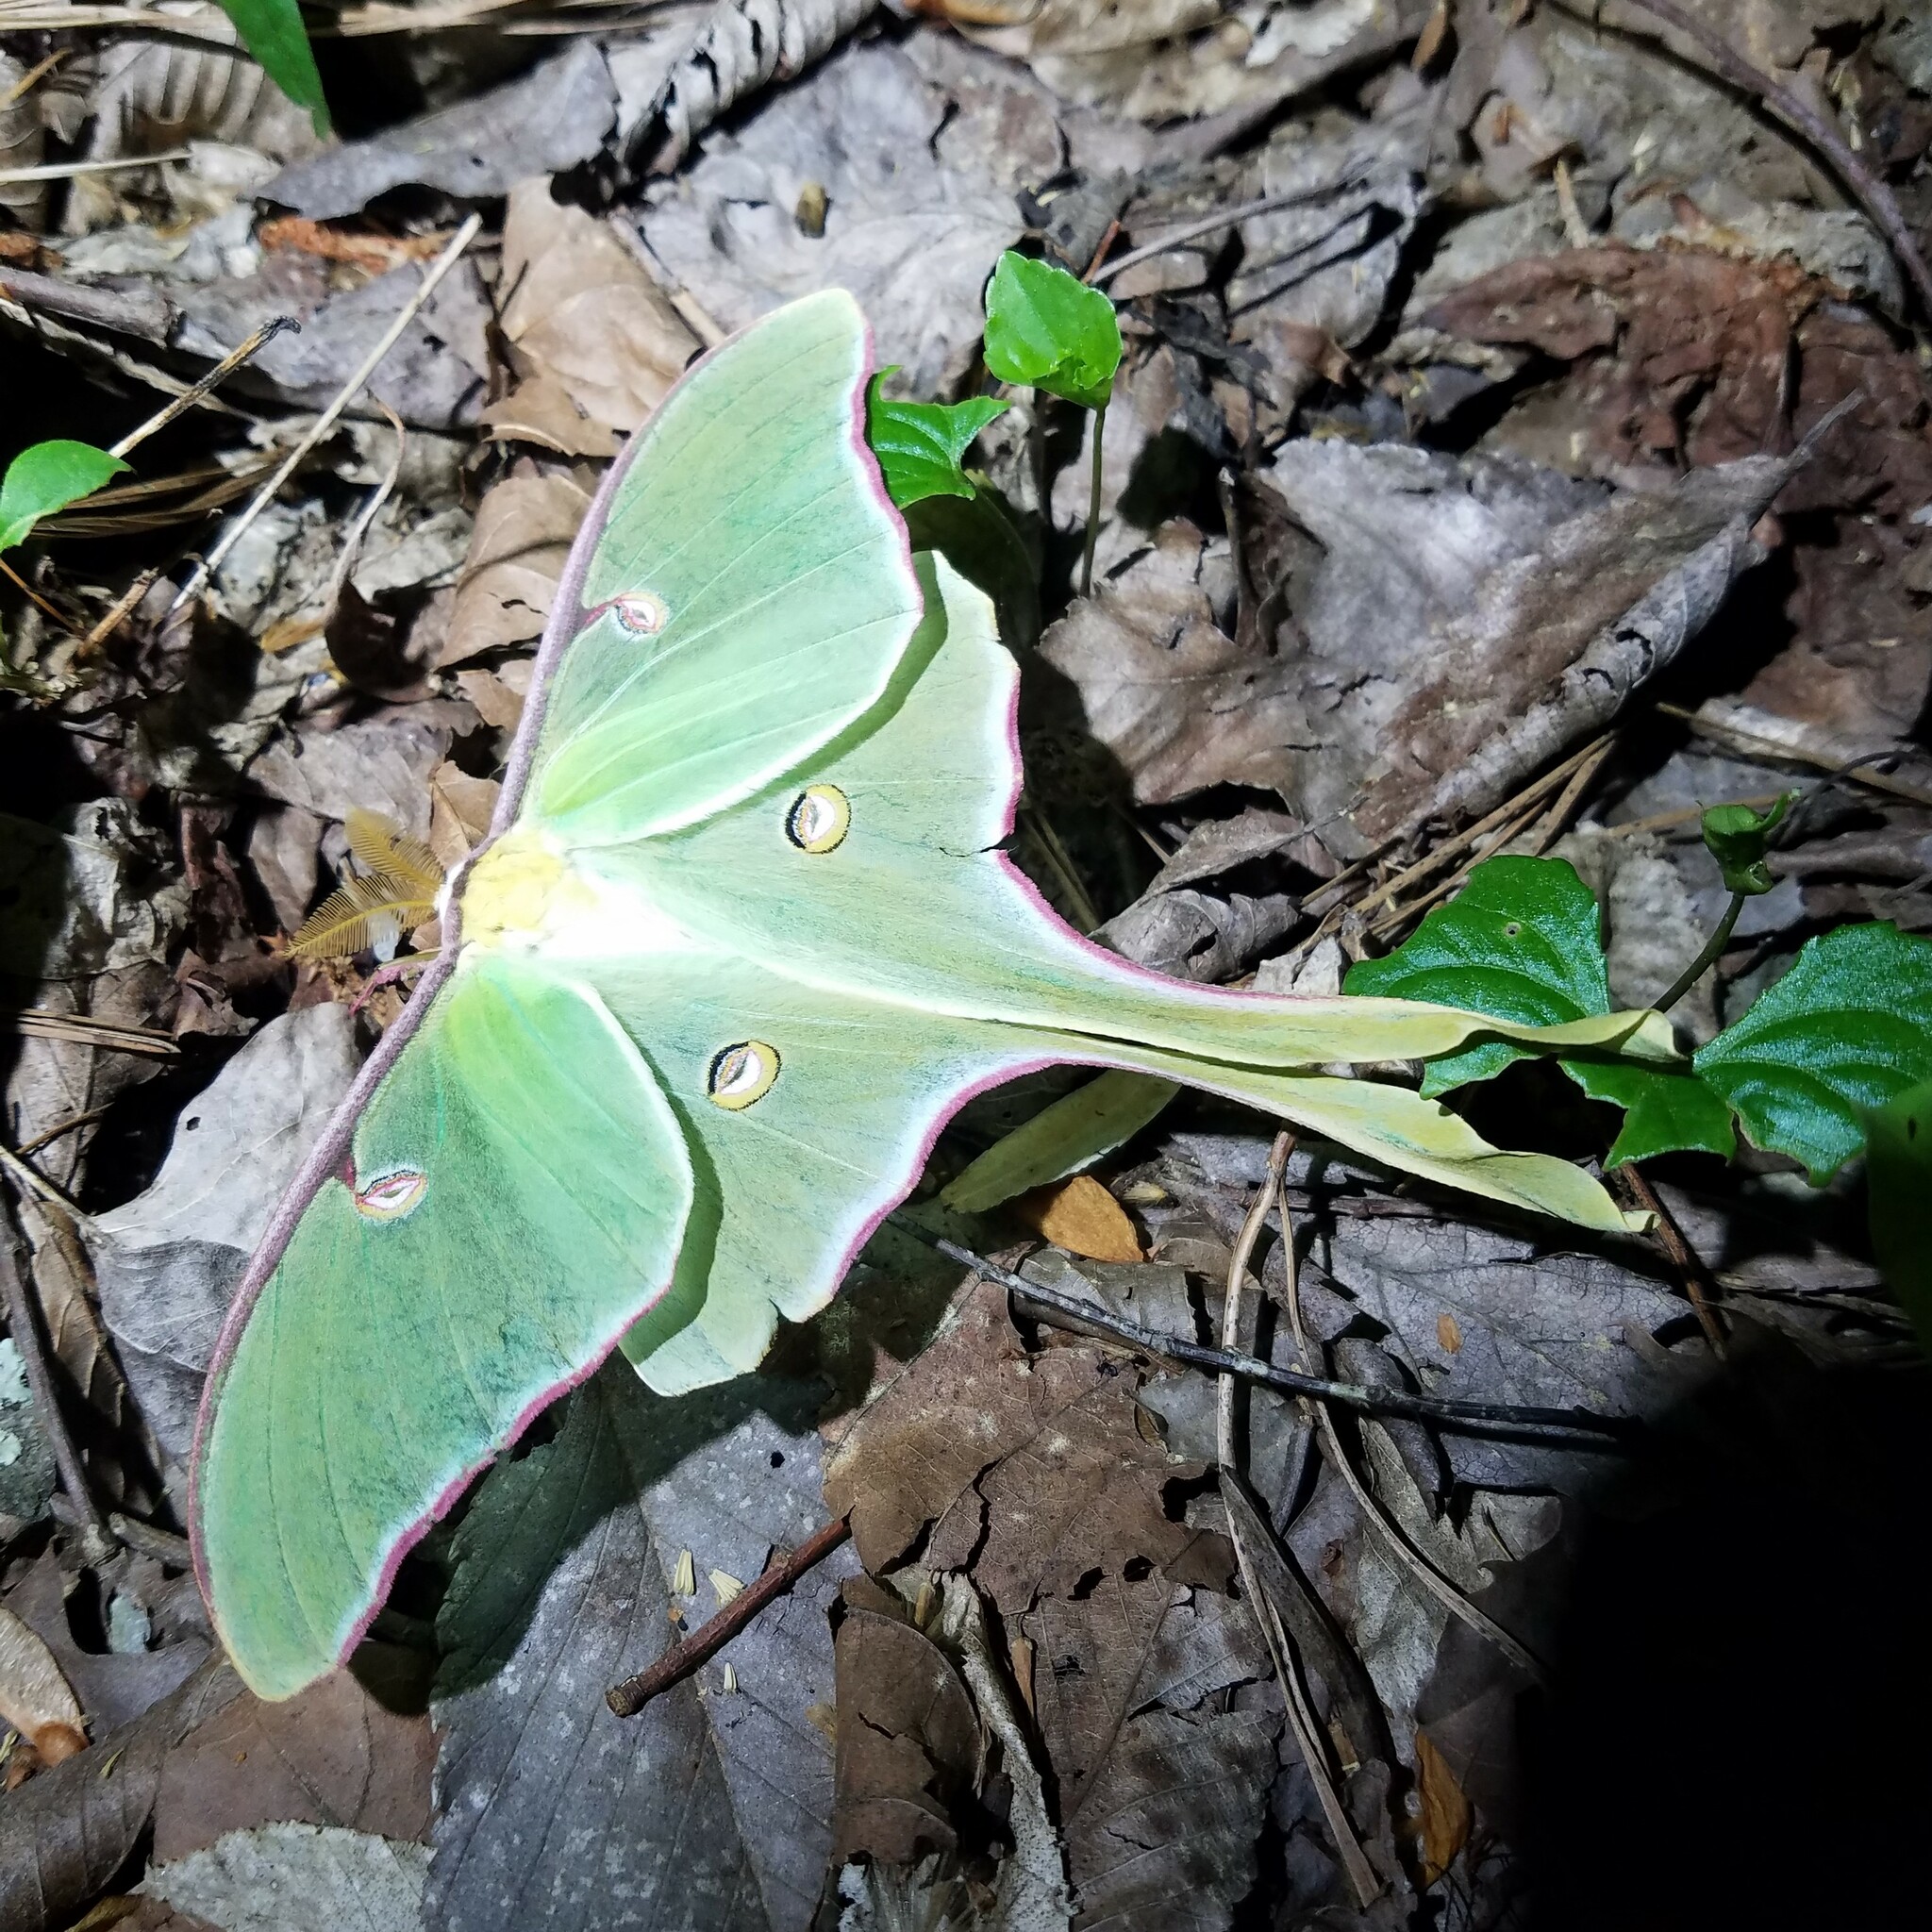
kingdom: Animalia
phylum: Arthropoda
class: Insecta
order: Lepidoptera
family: Saturniidae
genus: Actias
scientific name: Actias luna
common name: Luna moth
